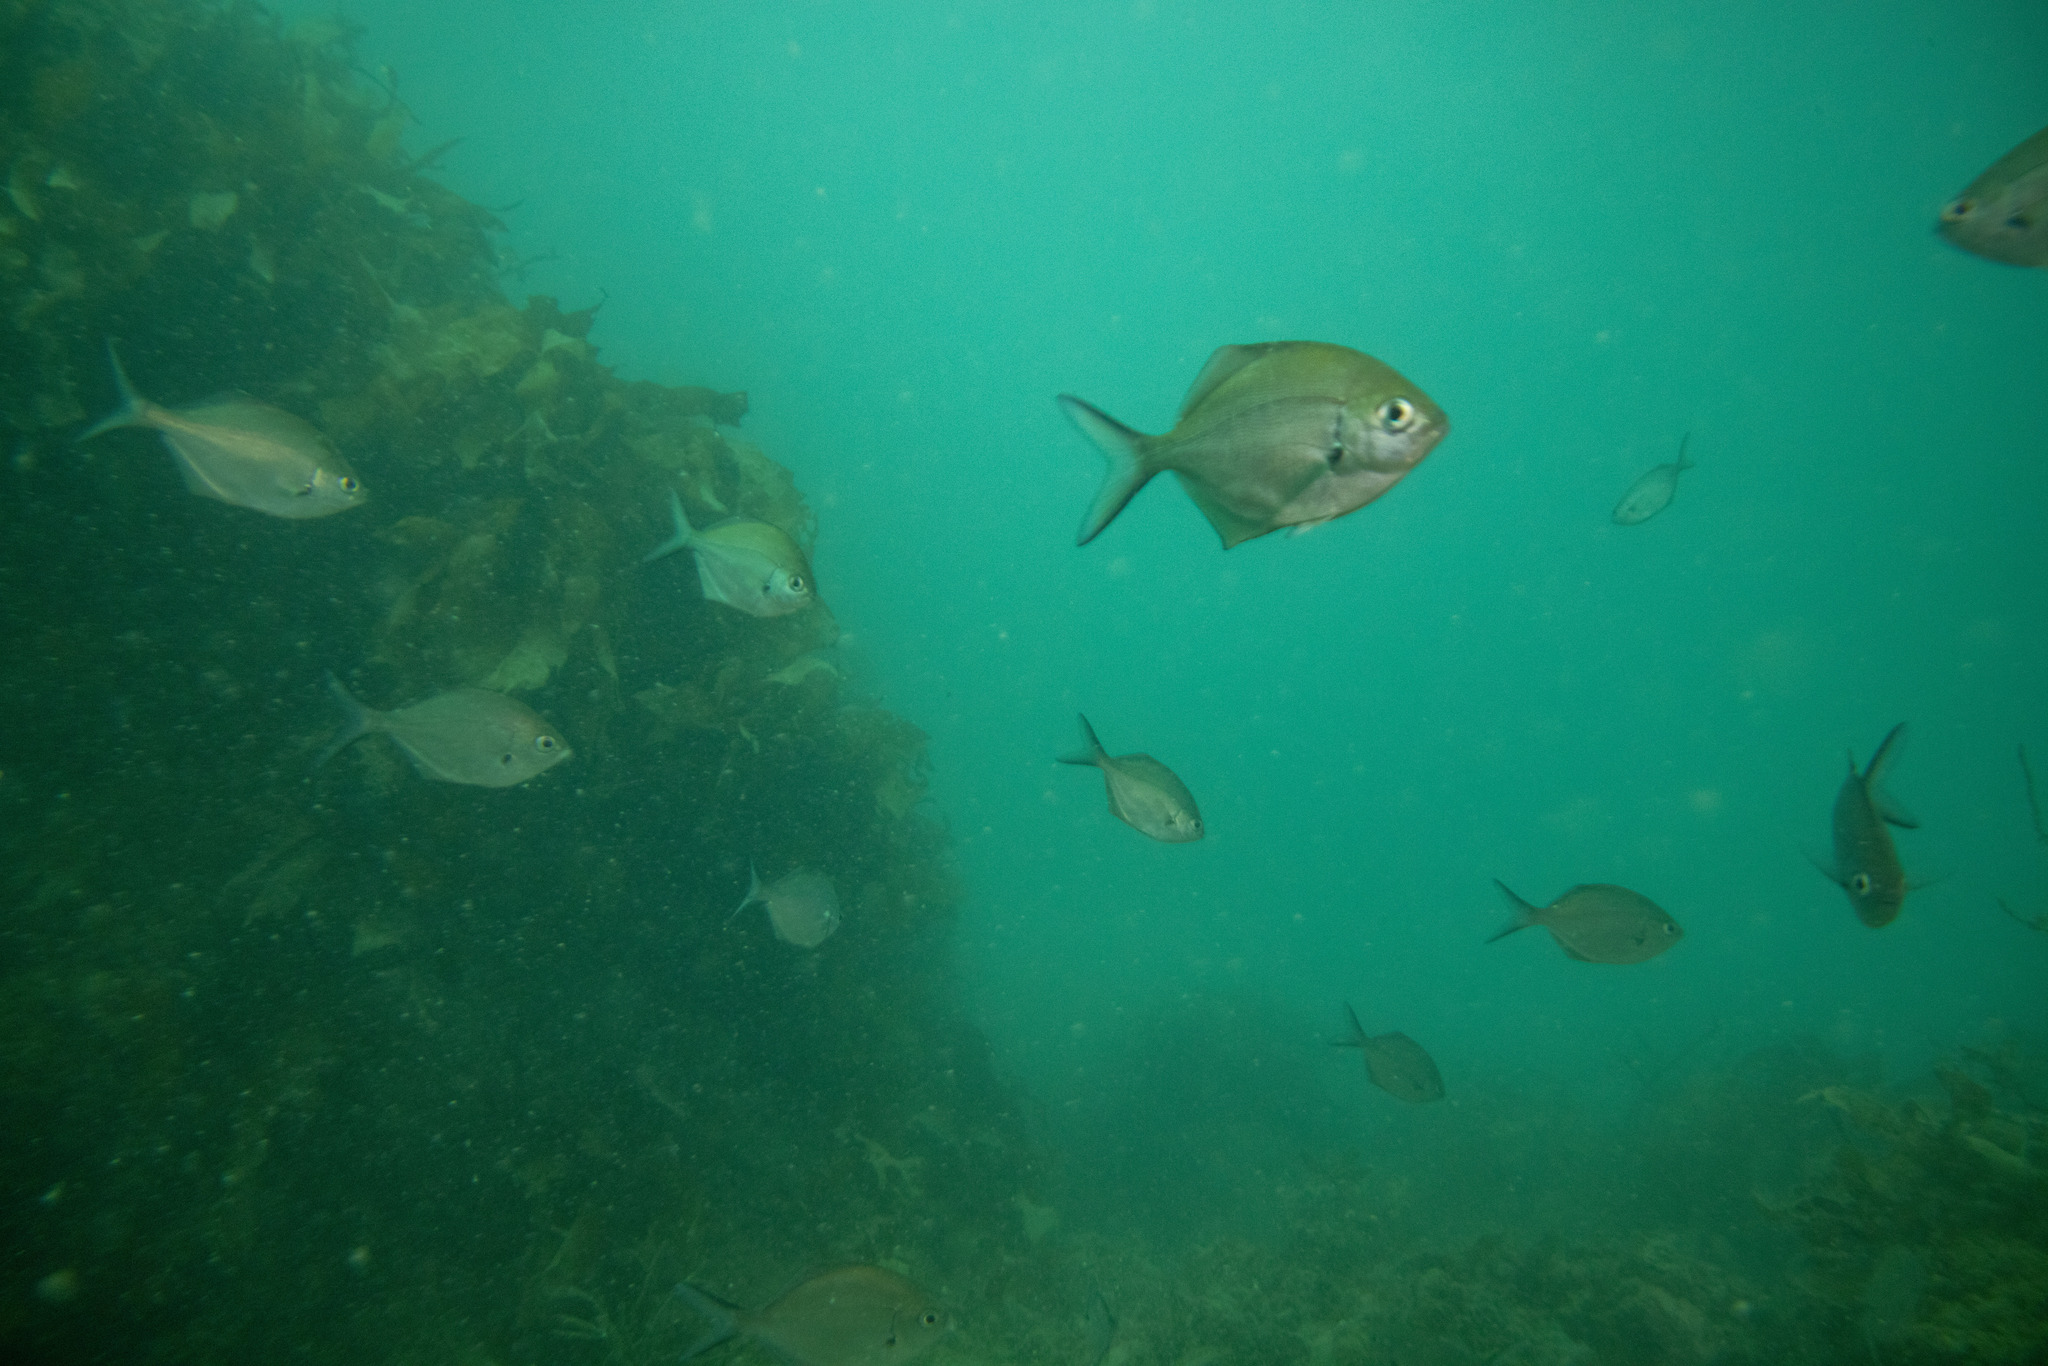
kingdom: Animalia
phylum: Chordata
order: Perciformes
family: Kyphosidae
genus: Scorpis
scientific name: Scorpis lineolata
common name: Sweep
